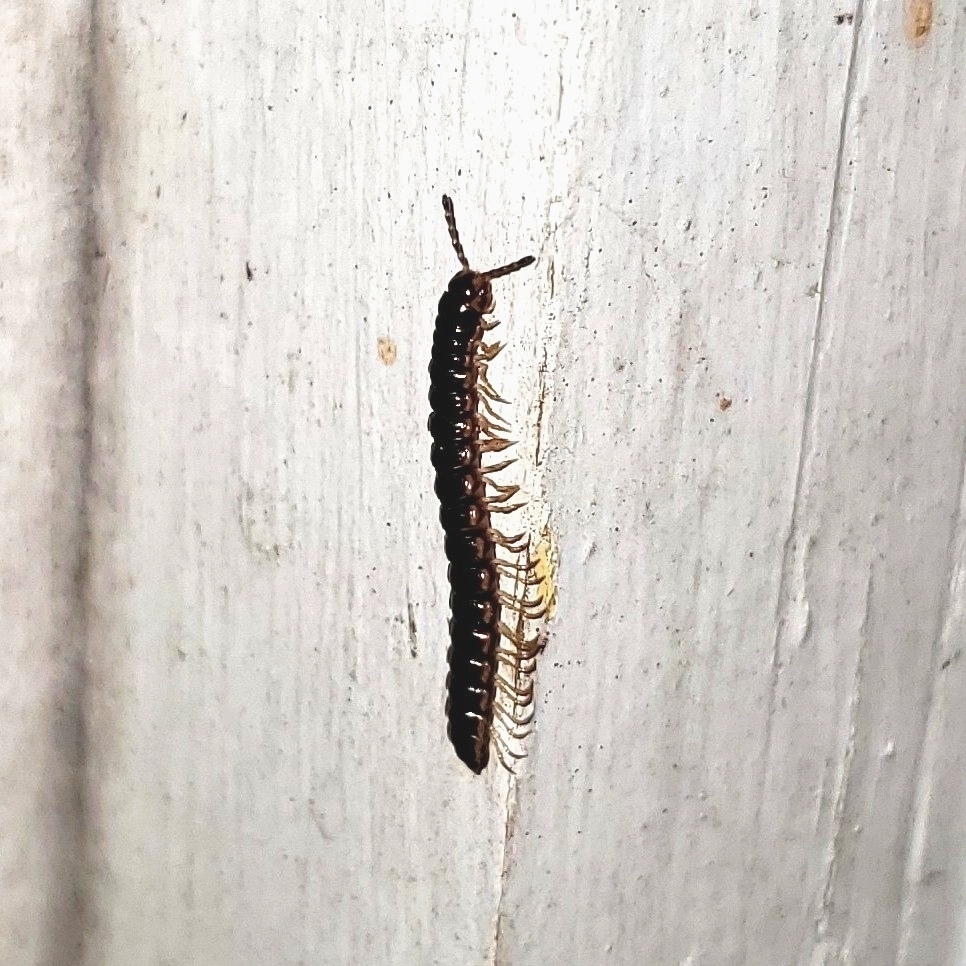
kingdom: Animalia
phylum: Arthropoda
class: Diplopoda
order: Polydesmida
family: Paradoxosomatidae
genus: Oxidus
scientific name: Oxidus gracilis
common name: Greenhouse millipede
